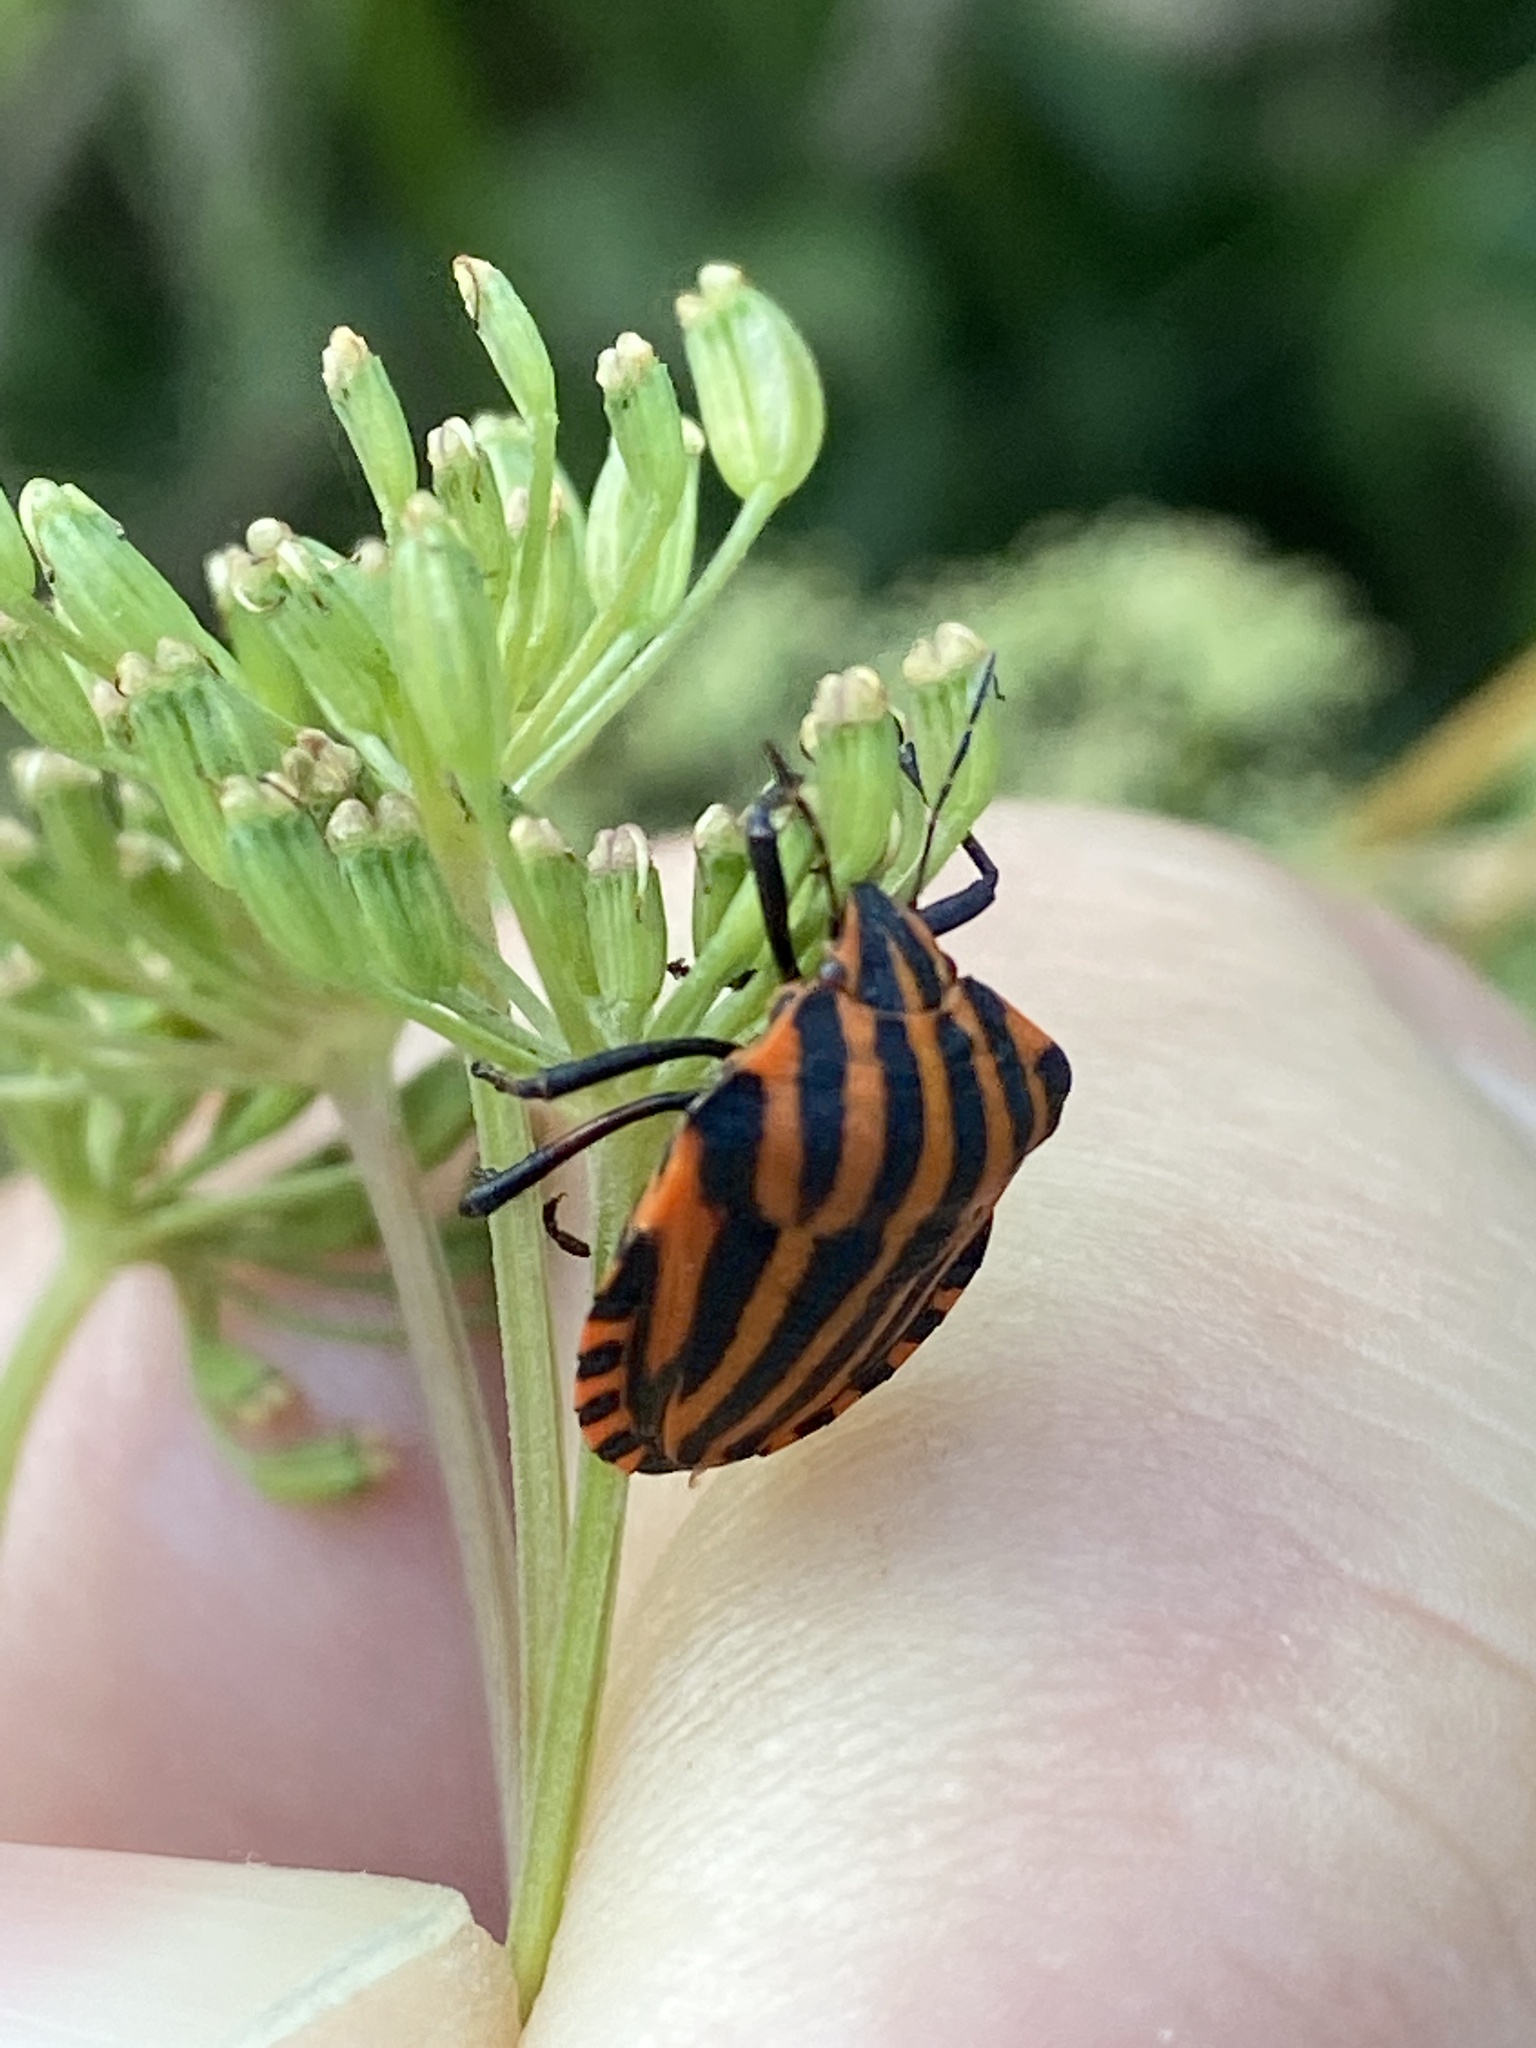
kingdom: Animalia
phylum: Arthropoda
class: Insecta
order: Hemiptera
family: Pentatomidae
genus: Graphosoma
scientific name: Graphosoma italicum
